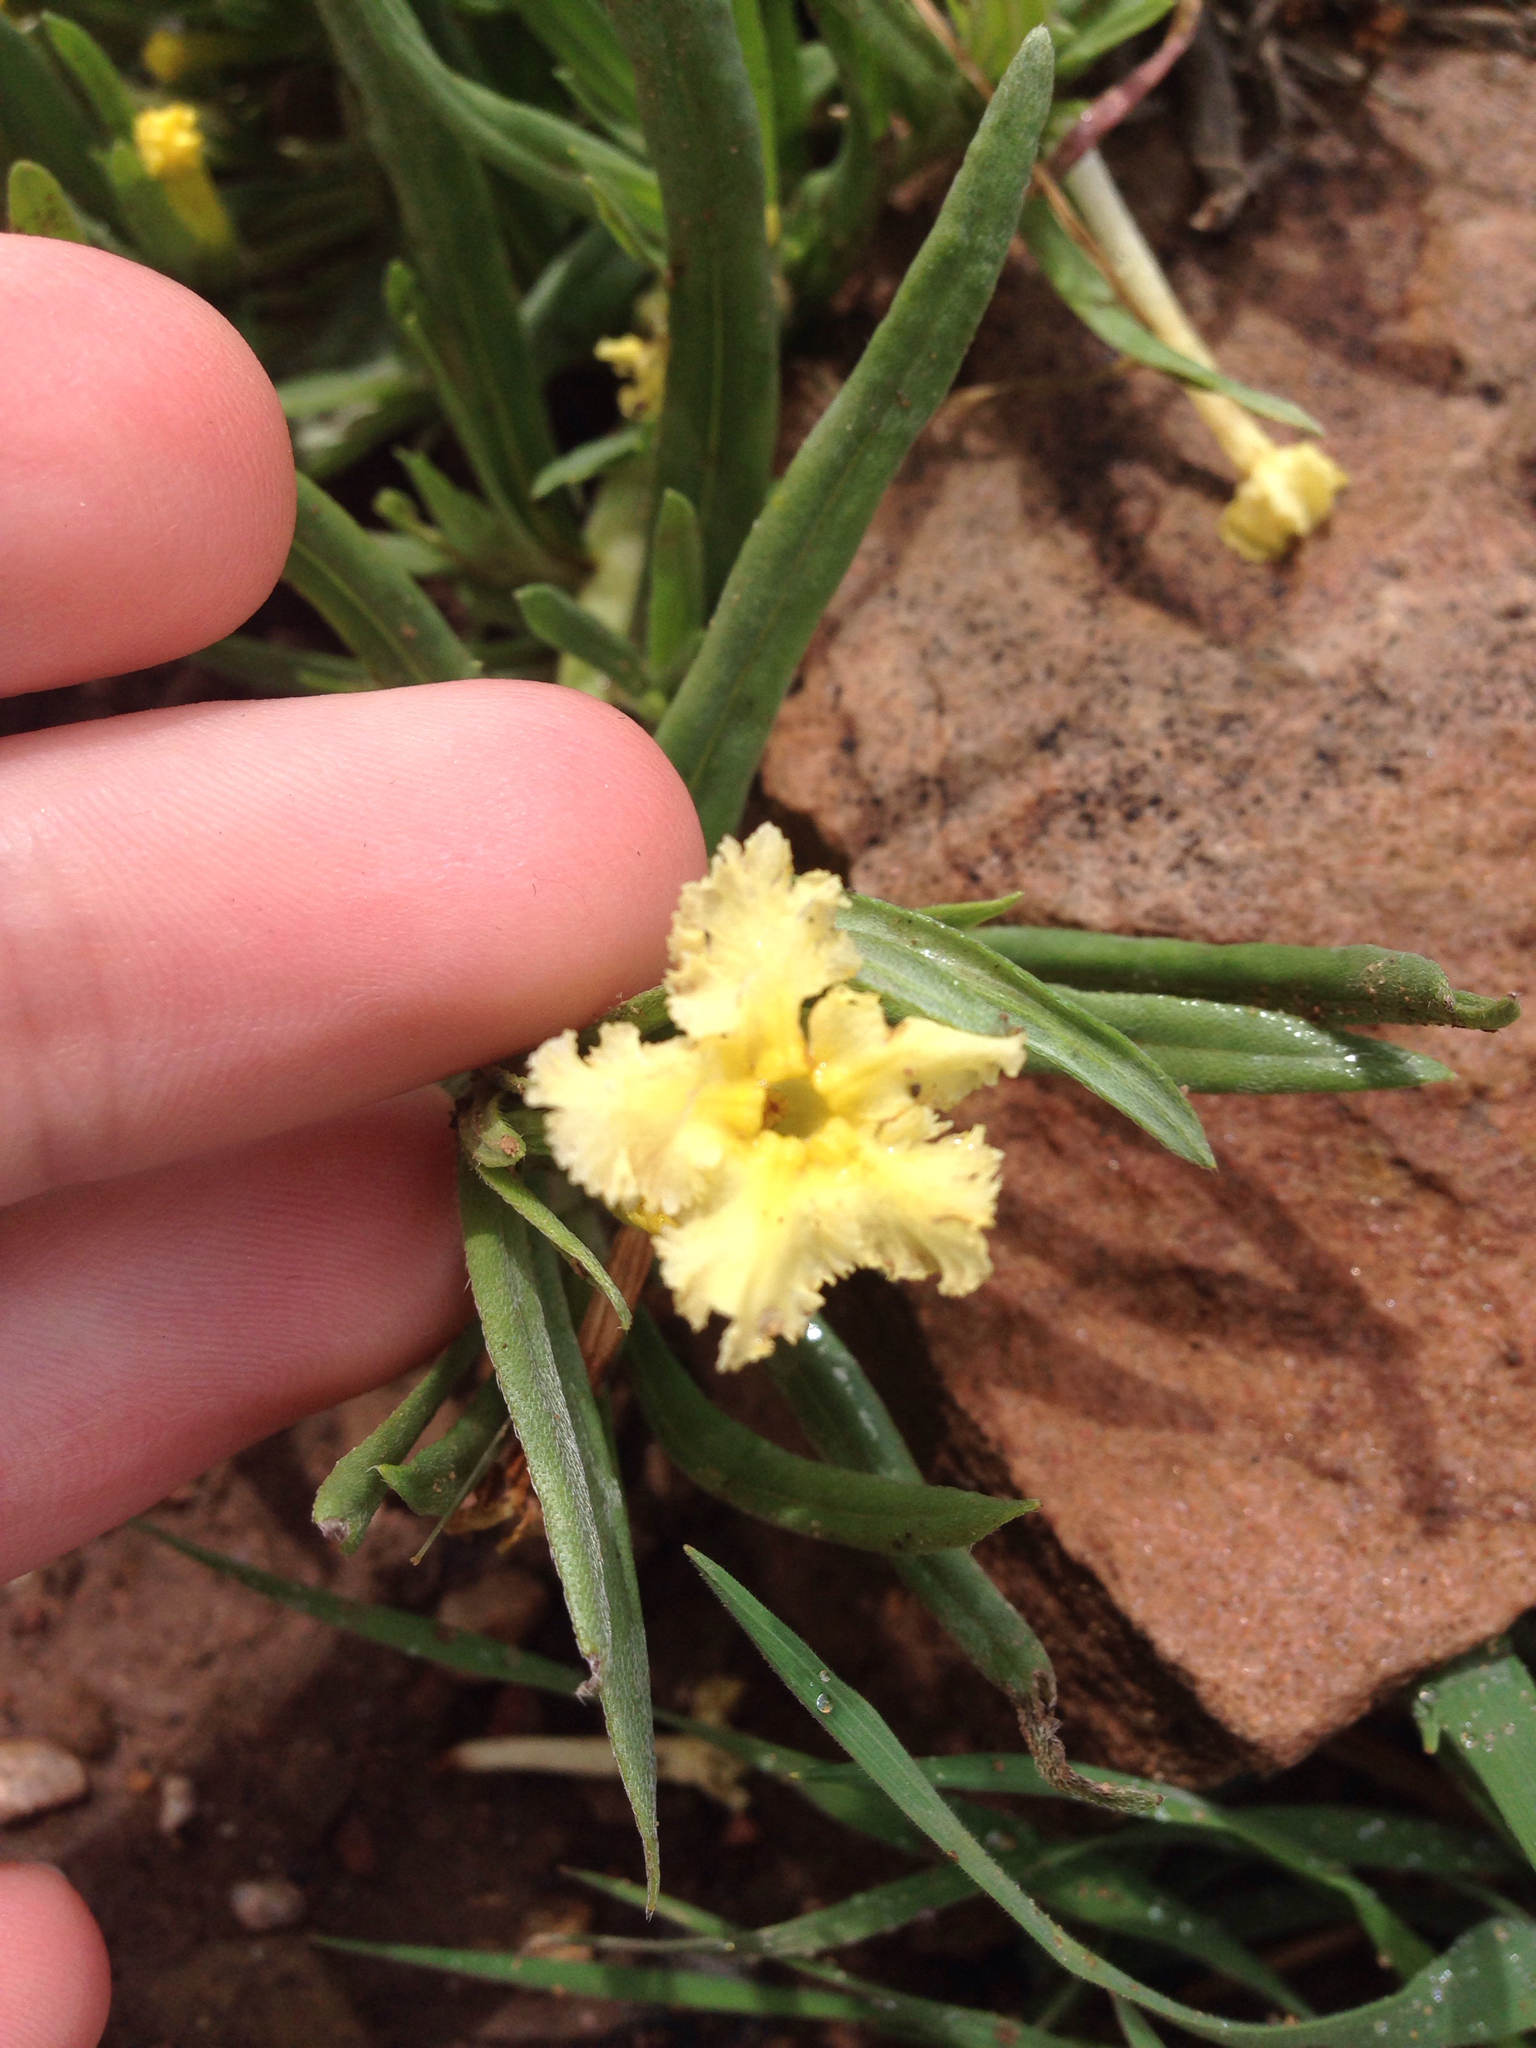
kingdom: Plantae
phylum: Tracheophyta
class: Magnoliopsida
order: Boraginales
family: Boraginaceae
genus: Lithospermum
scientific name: Lithospermum incisum
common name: Fringed gromwell
